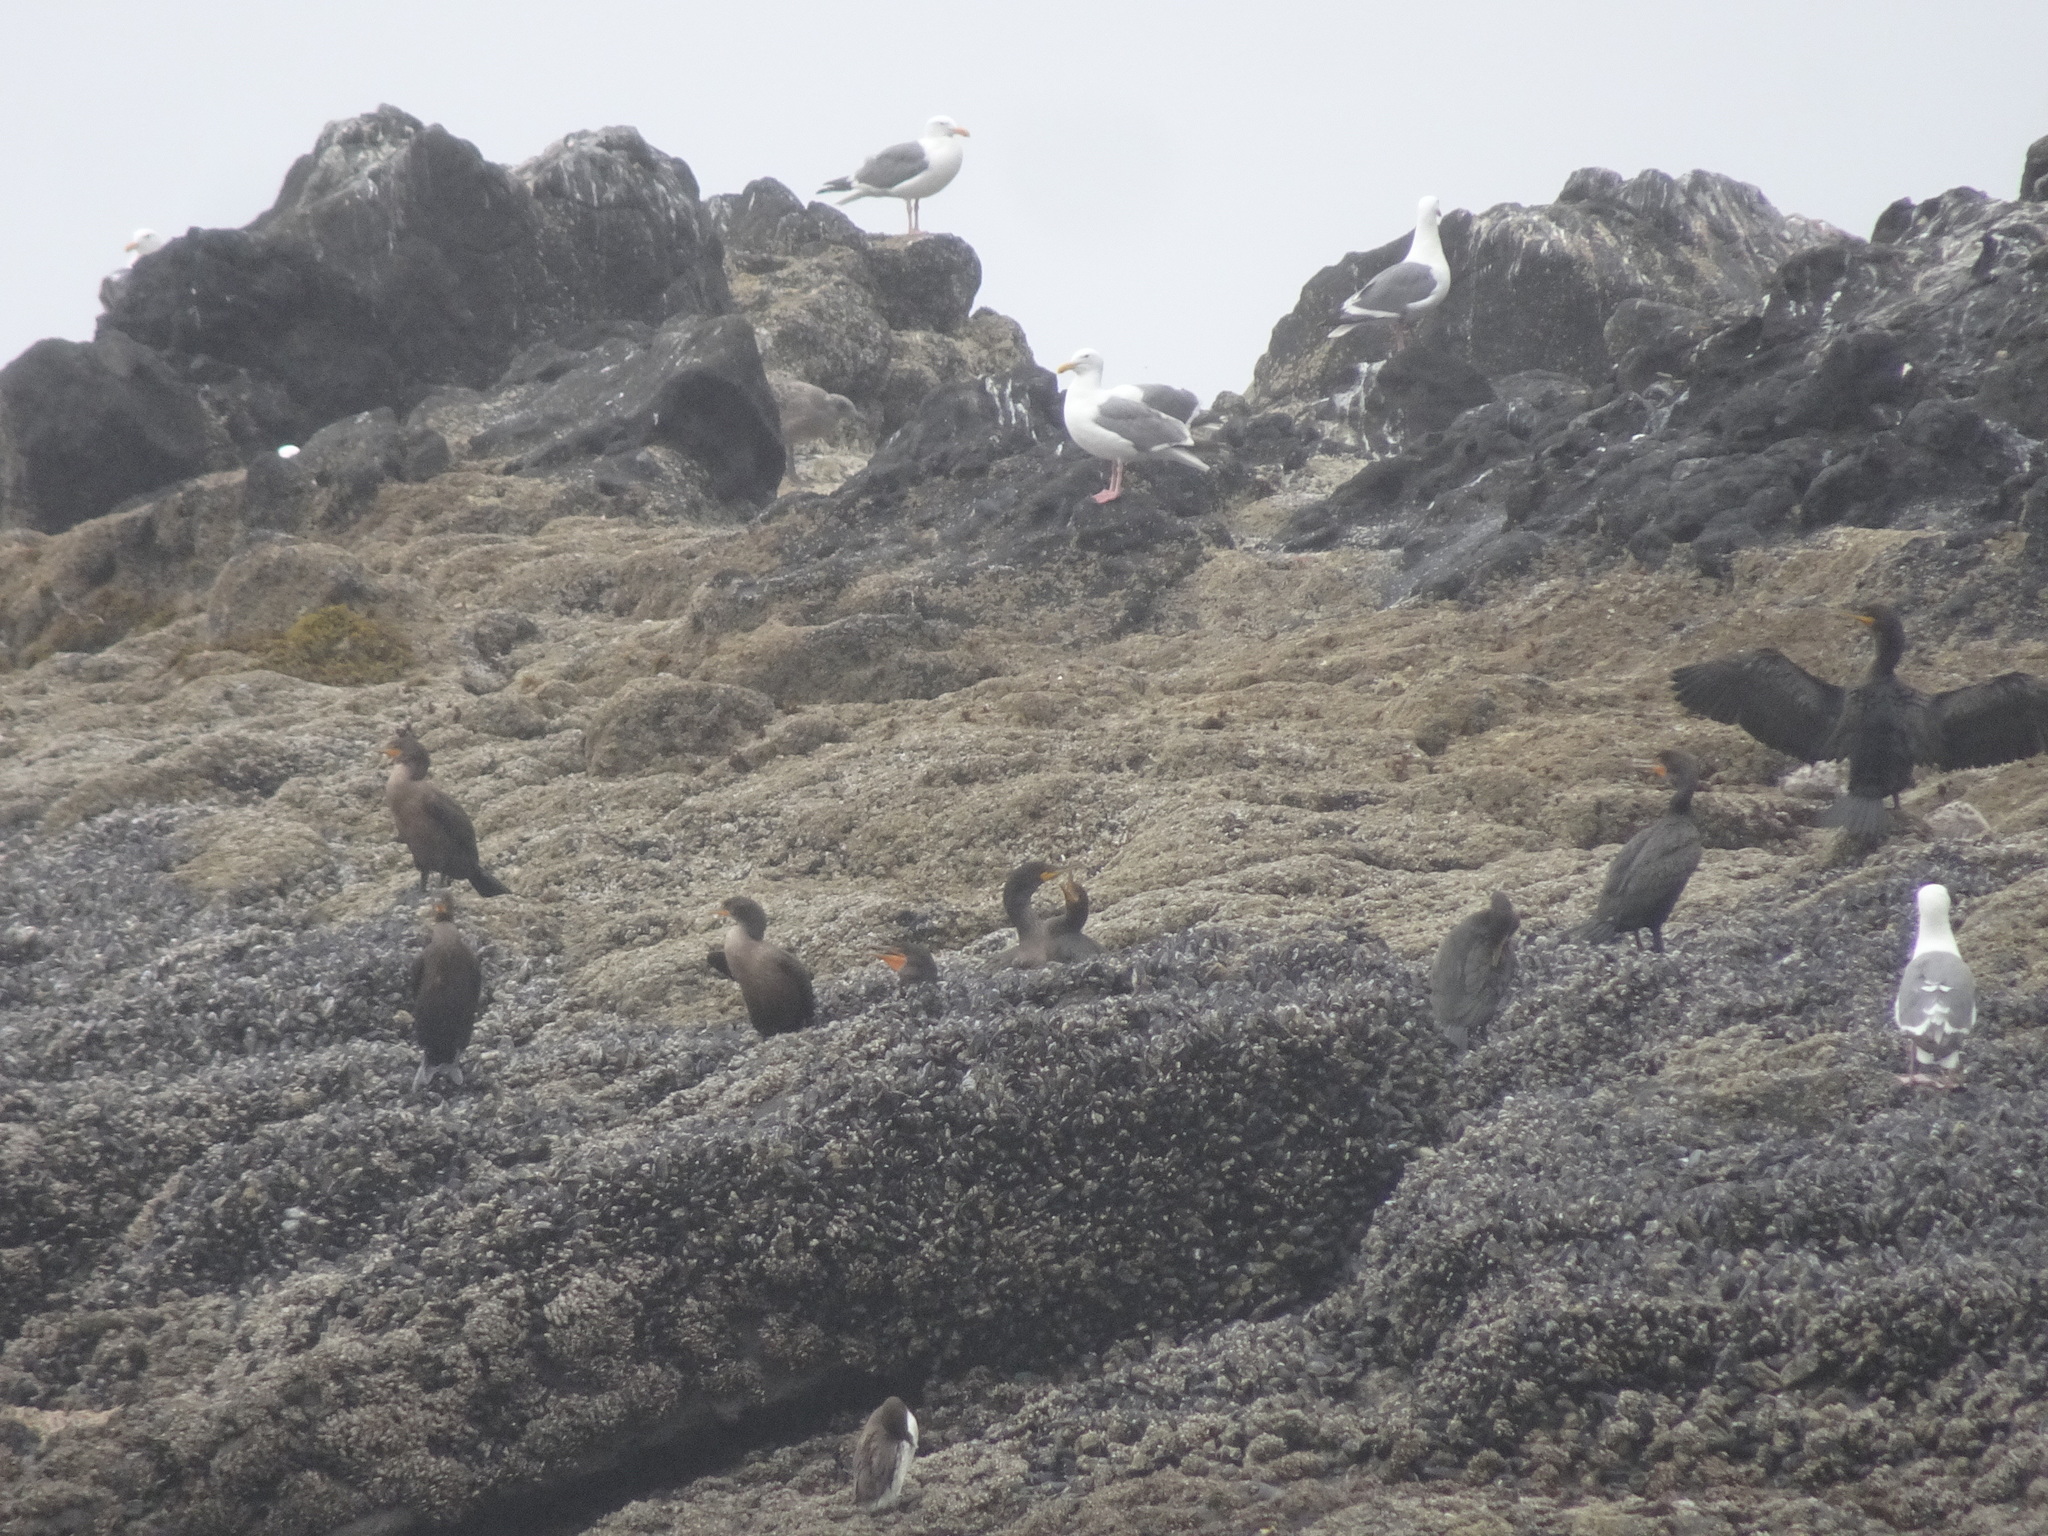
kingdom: Animalia
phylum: Chordata
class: Aves
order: Suliformes
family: Phalacrocoracidae
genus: Phalacrocorax
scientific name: Phalacrocorax auritus
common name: Double-crested cormorant
